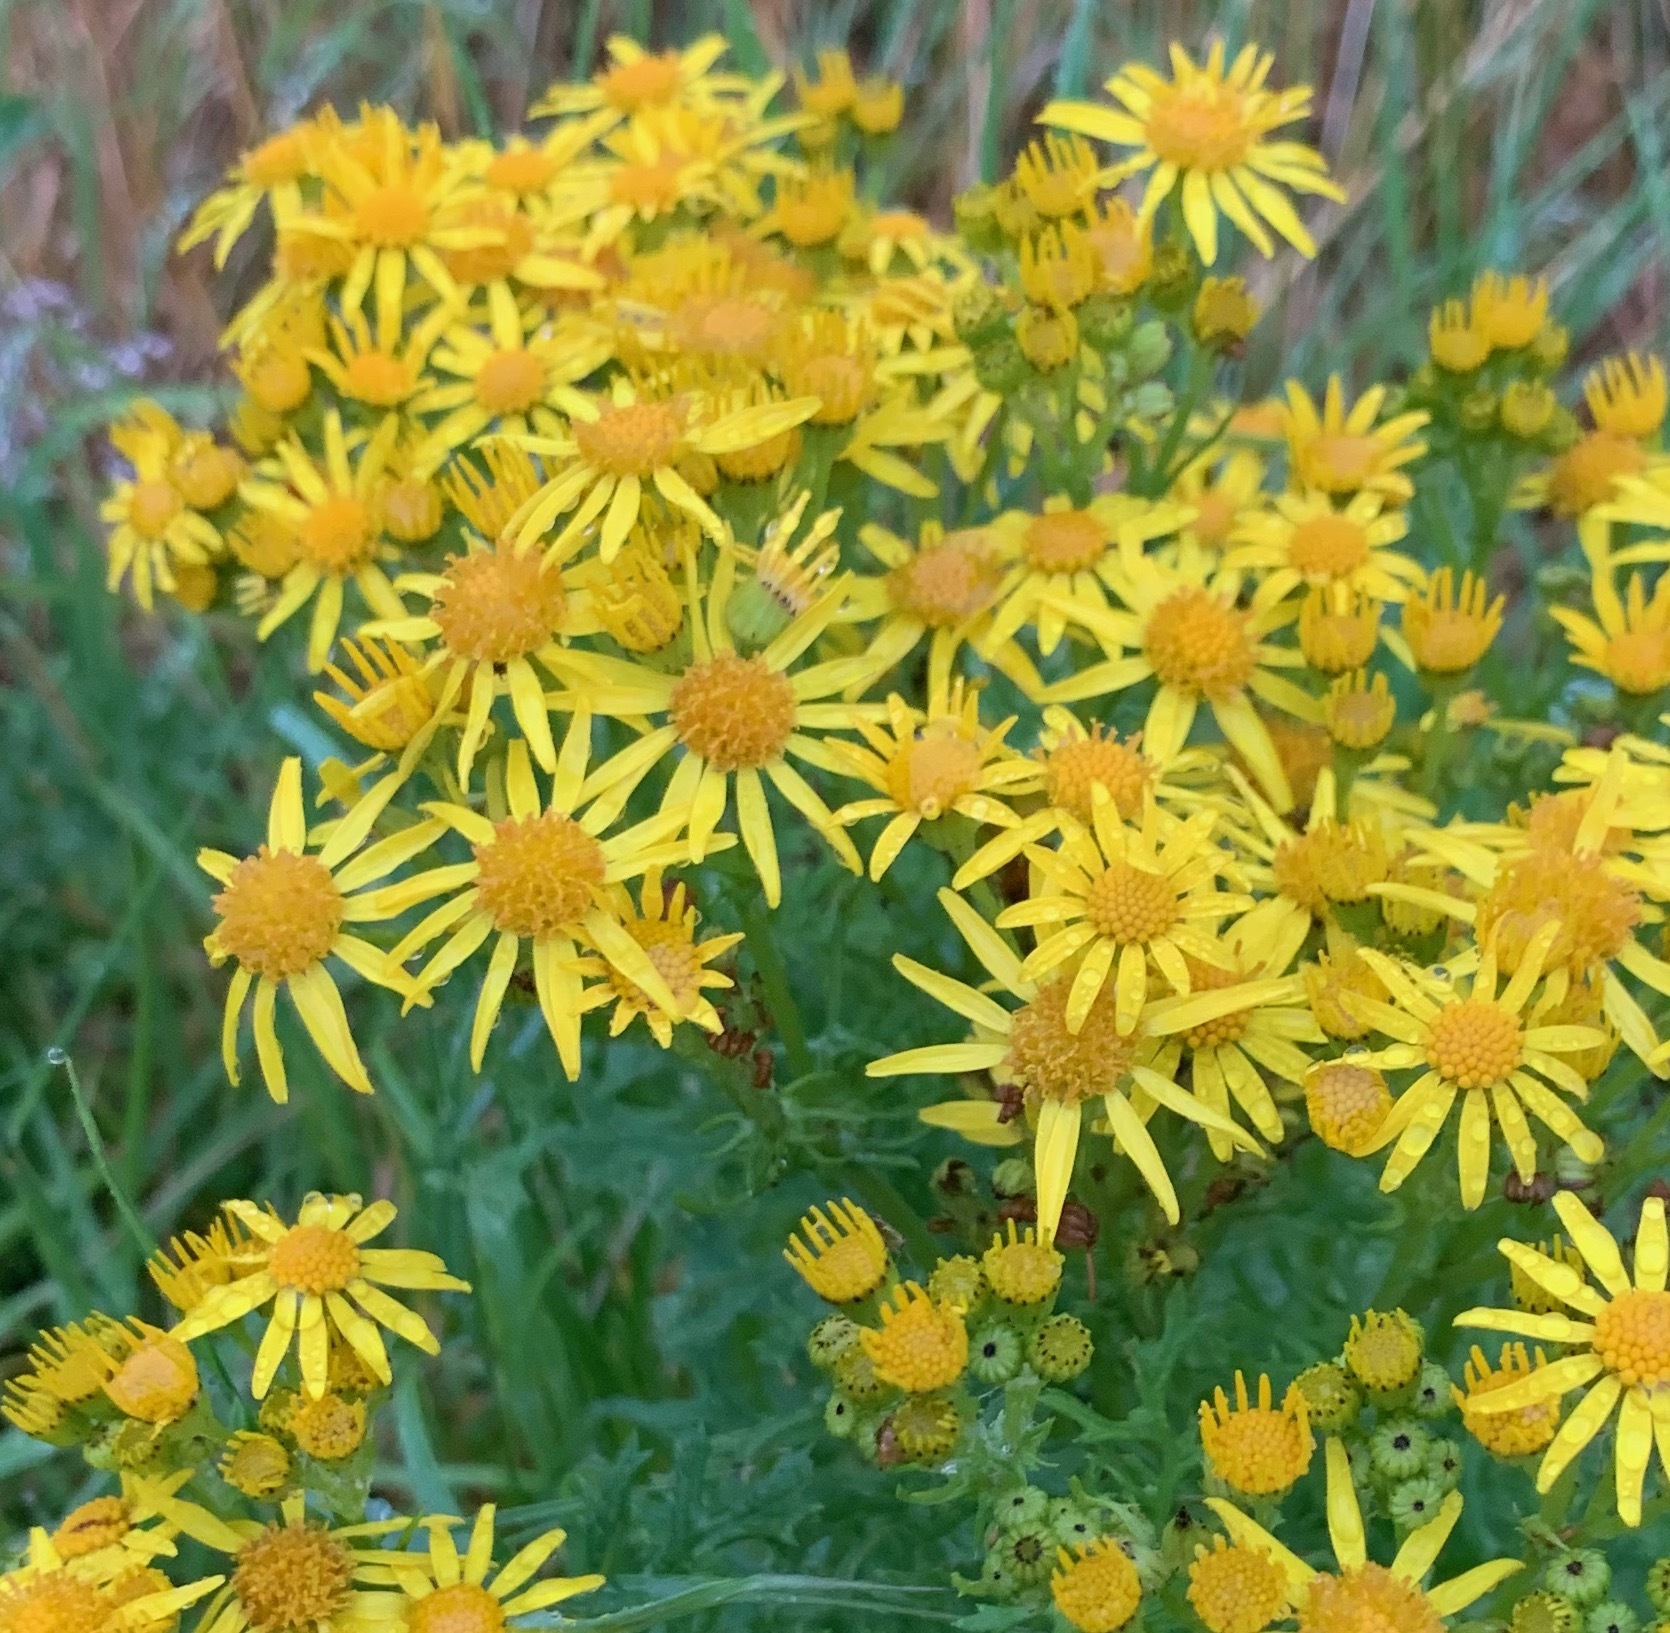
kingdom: Plantae
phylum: Tracheophyta
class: Magnoliopsida
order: Asterales
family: Asteraceae
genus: Jacobaea
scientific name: Jacobaea vulgaris
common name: Stinking willie
